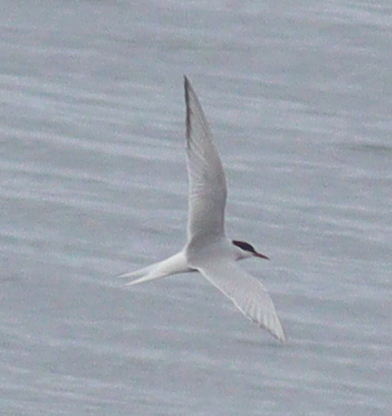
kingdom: Animalia
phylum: Chordata
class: Aves
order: Charadriiformes
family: Laridae
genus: Sterna
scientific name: Sterna paradisaea
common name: Arctic tern
